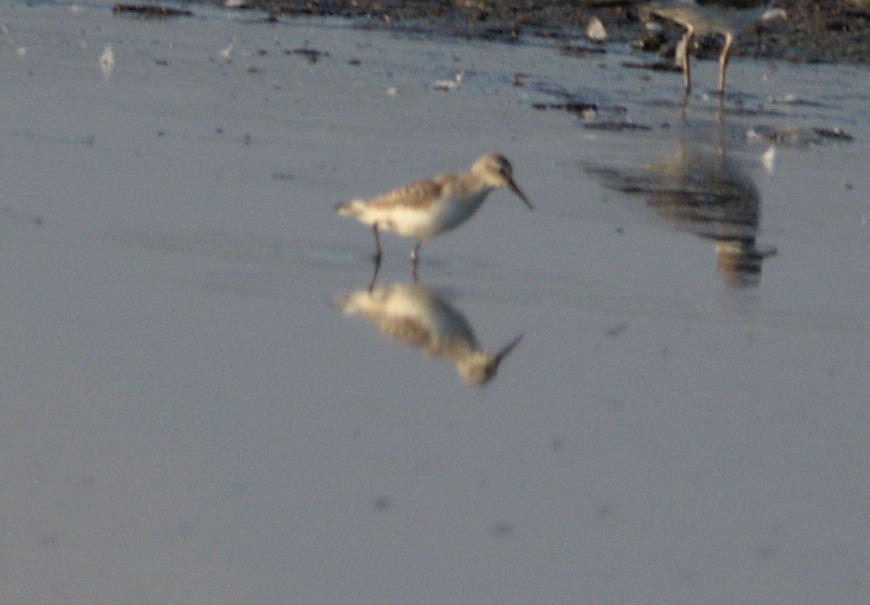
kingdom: Animalia
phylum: Chordata
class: Aves
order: Charadriiformes
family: Scolopacidae
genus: Calidris
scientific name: Calidris mauri
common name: Western sandpiper
